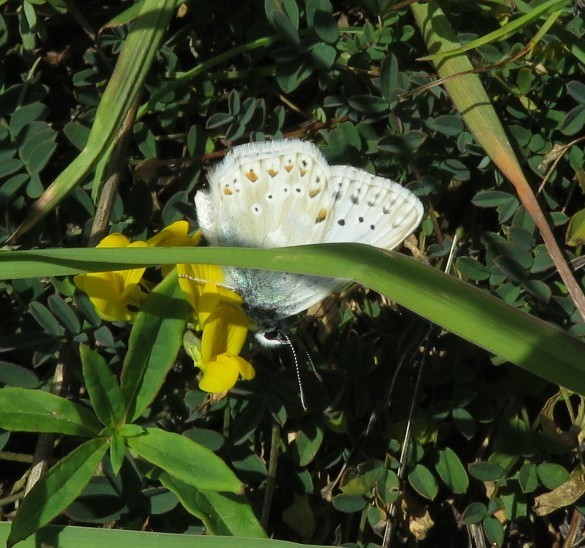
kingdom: Animalia
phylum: Arthropoda
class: Insecta
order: Lepidoptera
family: Lycaenidae
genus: Lysandra
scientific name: Lysandra coridon
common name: Chalkhill blue
